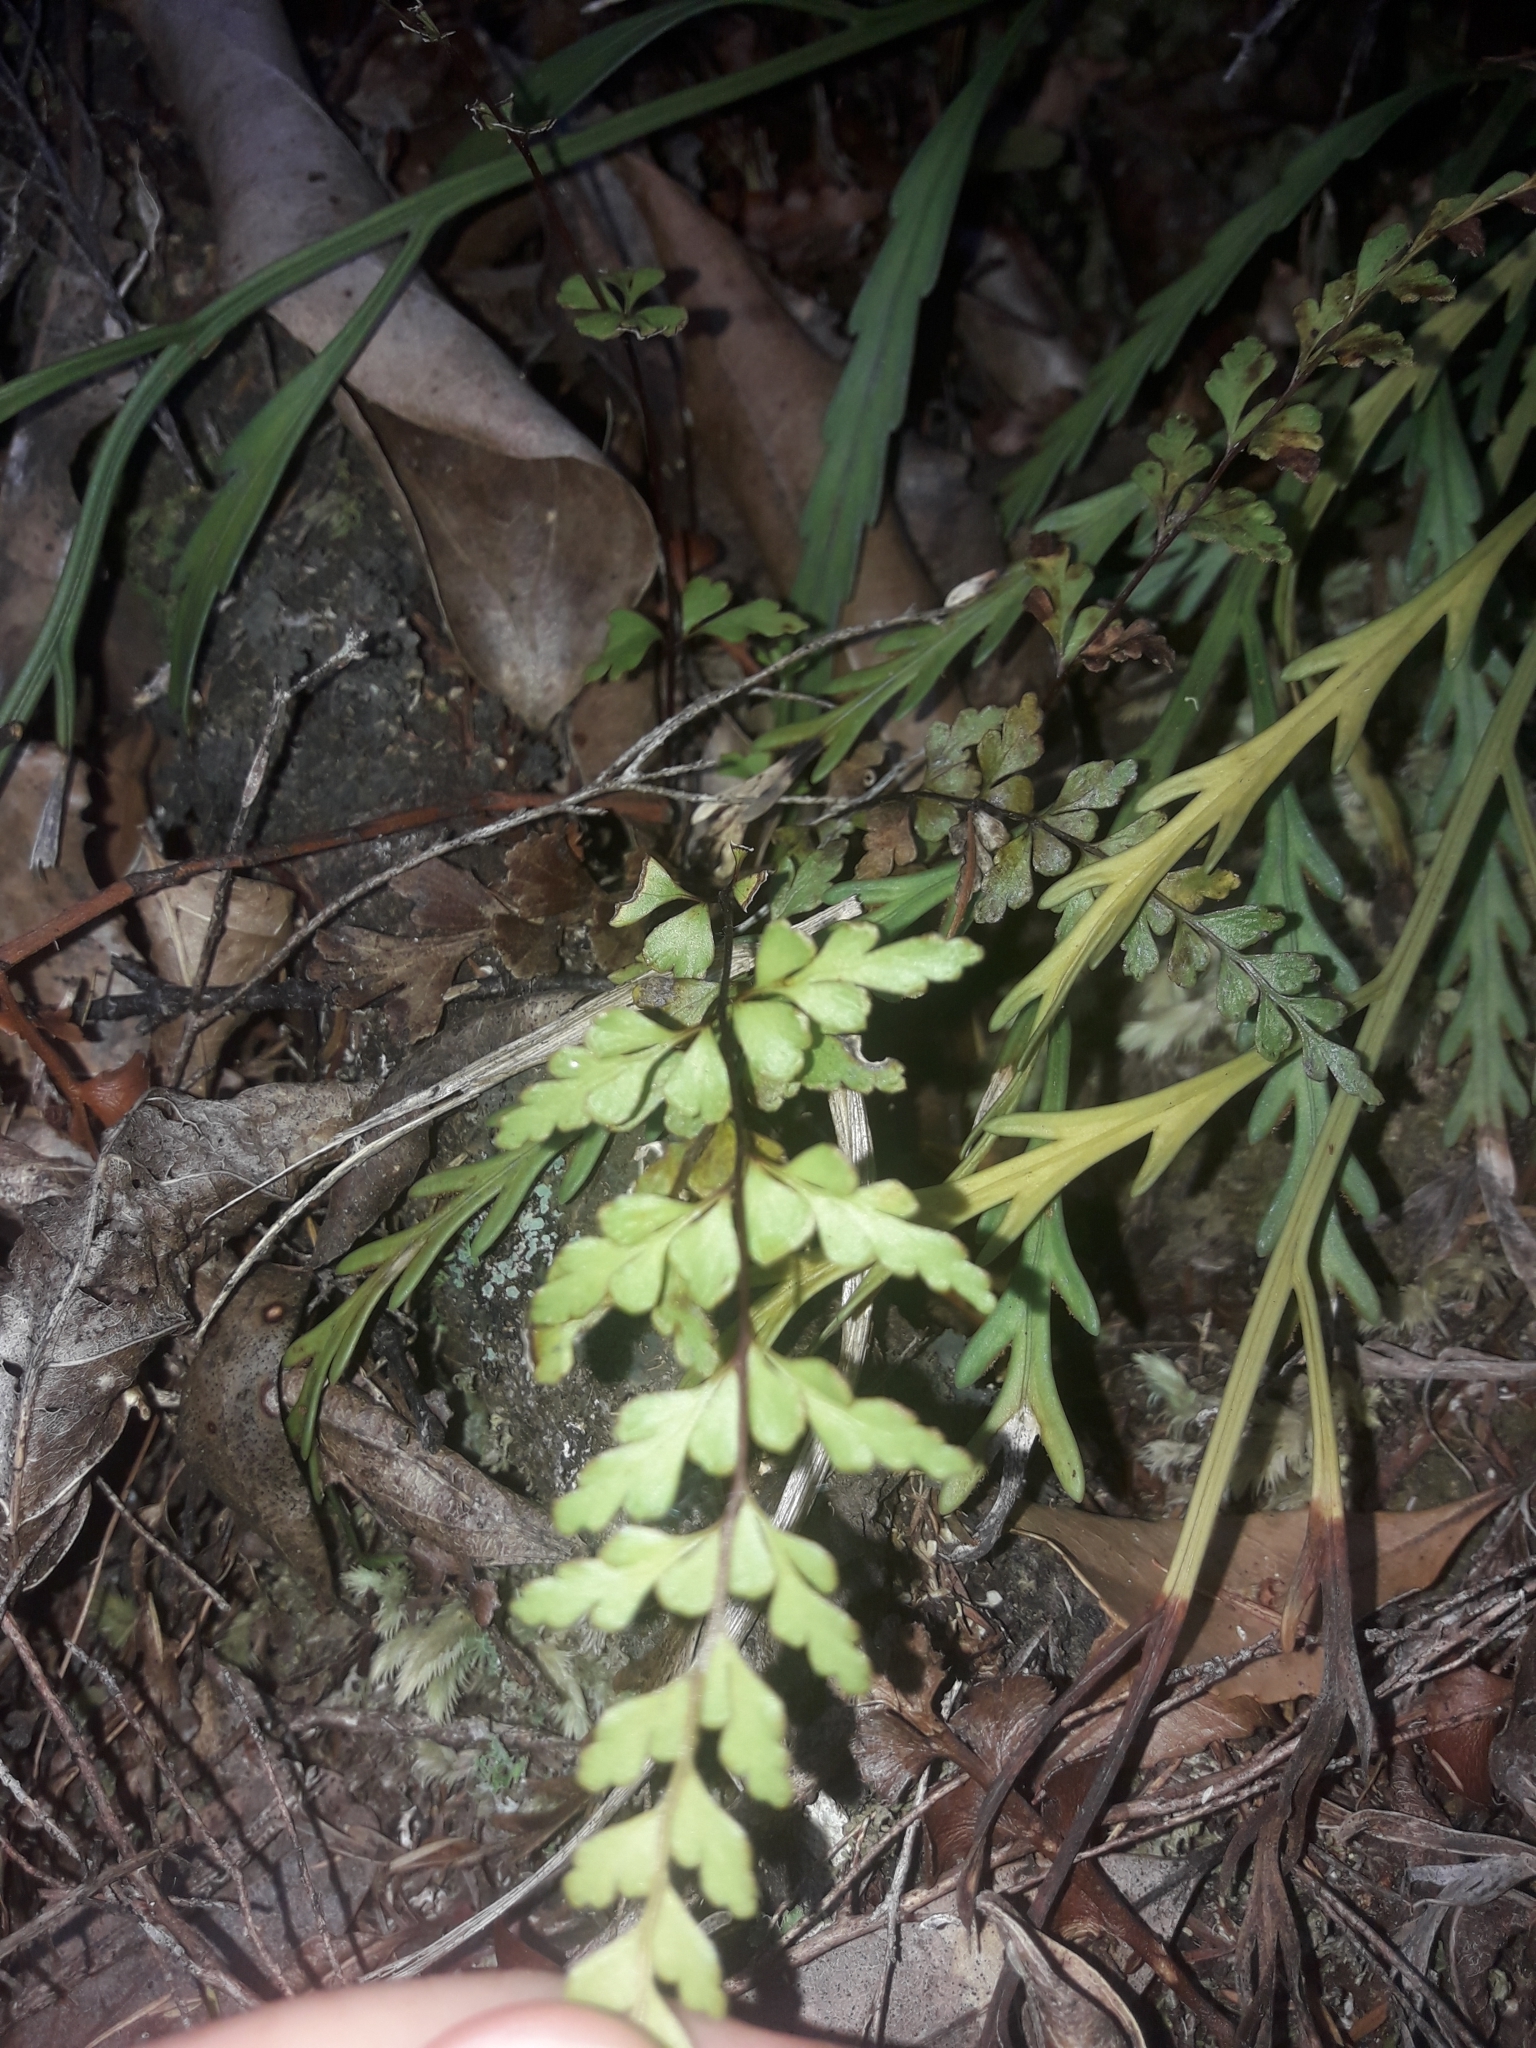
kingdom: Plantae
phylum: Tracheophyta
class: Polypodiopsida
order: Polypodiales
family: Lindsaeaceae
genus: Lindsaea
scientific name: Lindsaea trichomanoides
